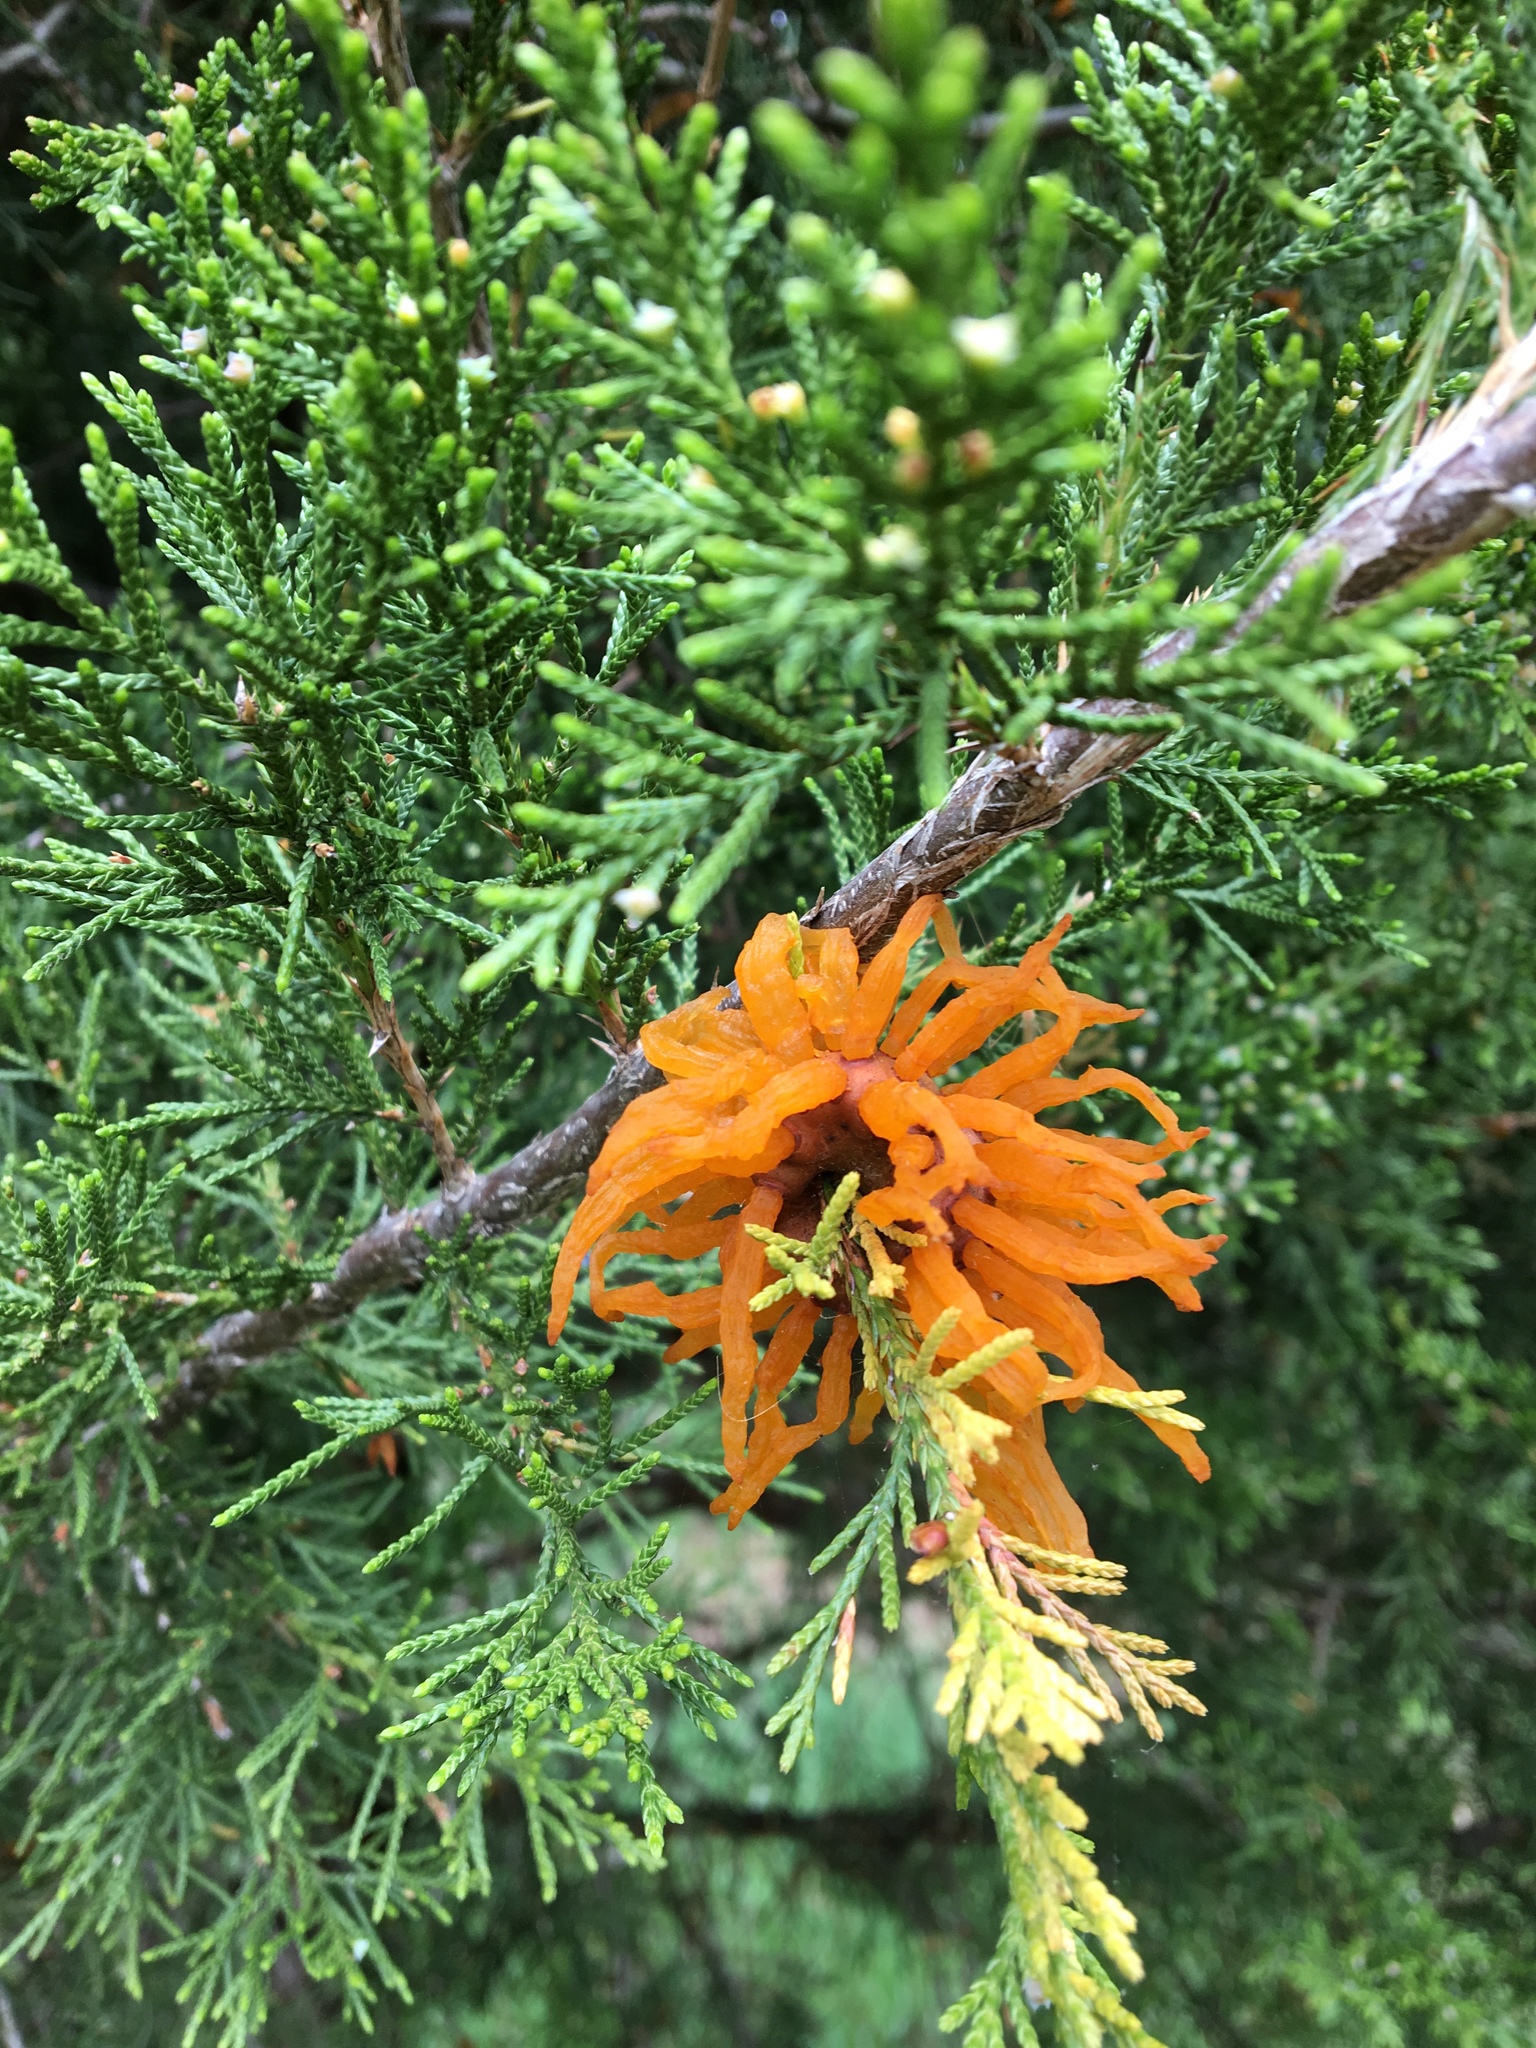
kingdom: Fungi
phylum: Basidiomycota
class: Pucciniomycetes
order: Pucciniales
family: Gymnosporangiaceae
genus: Gymnosporangium
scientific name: Gymnosporangium juniperi-virginianae
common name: Juniper-apple rust
